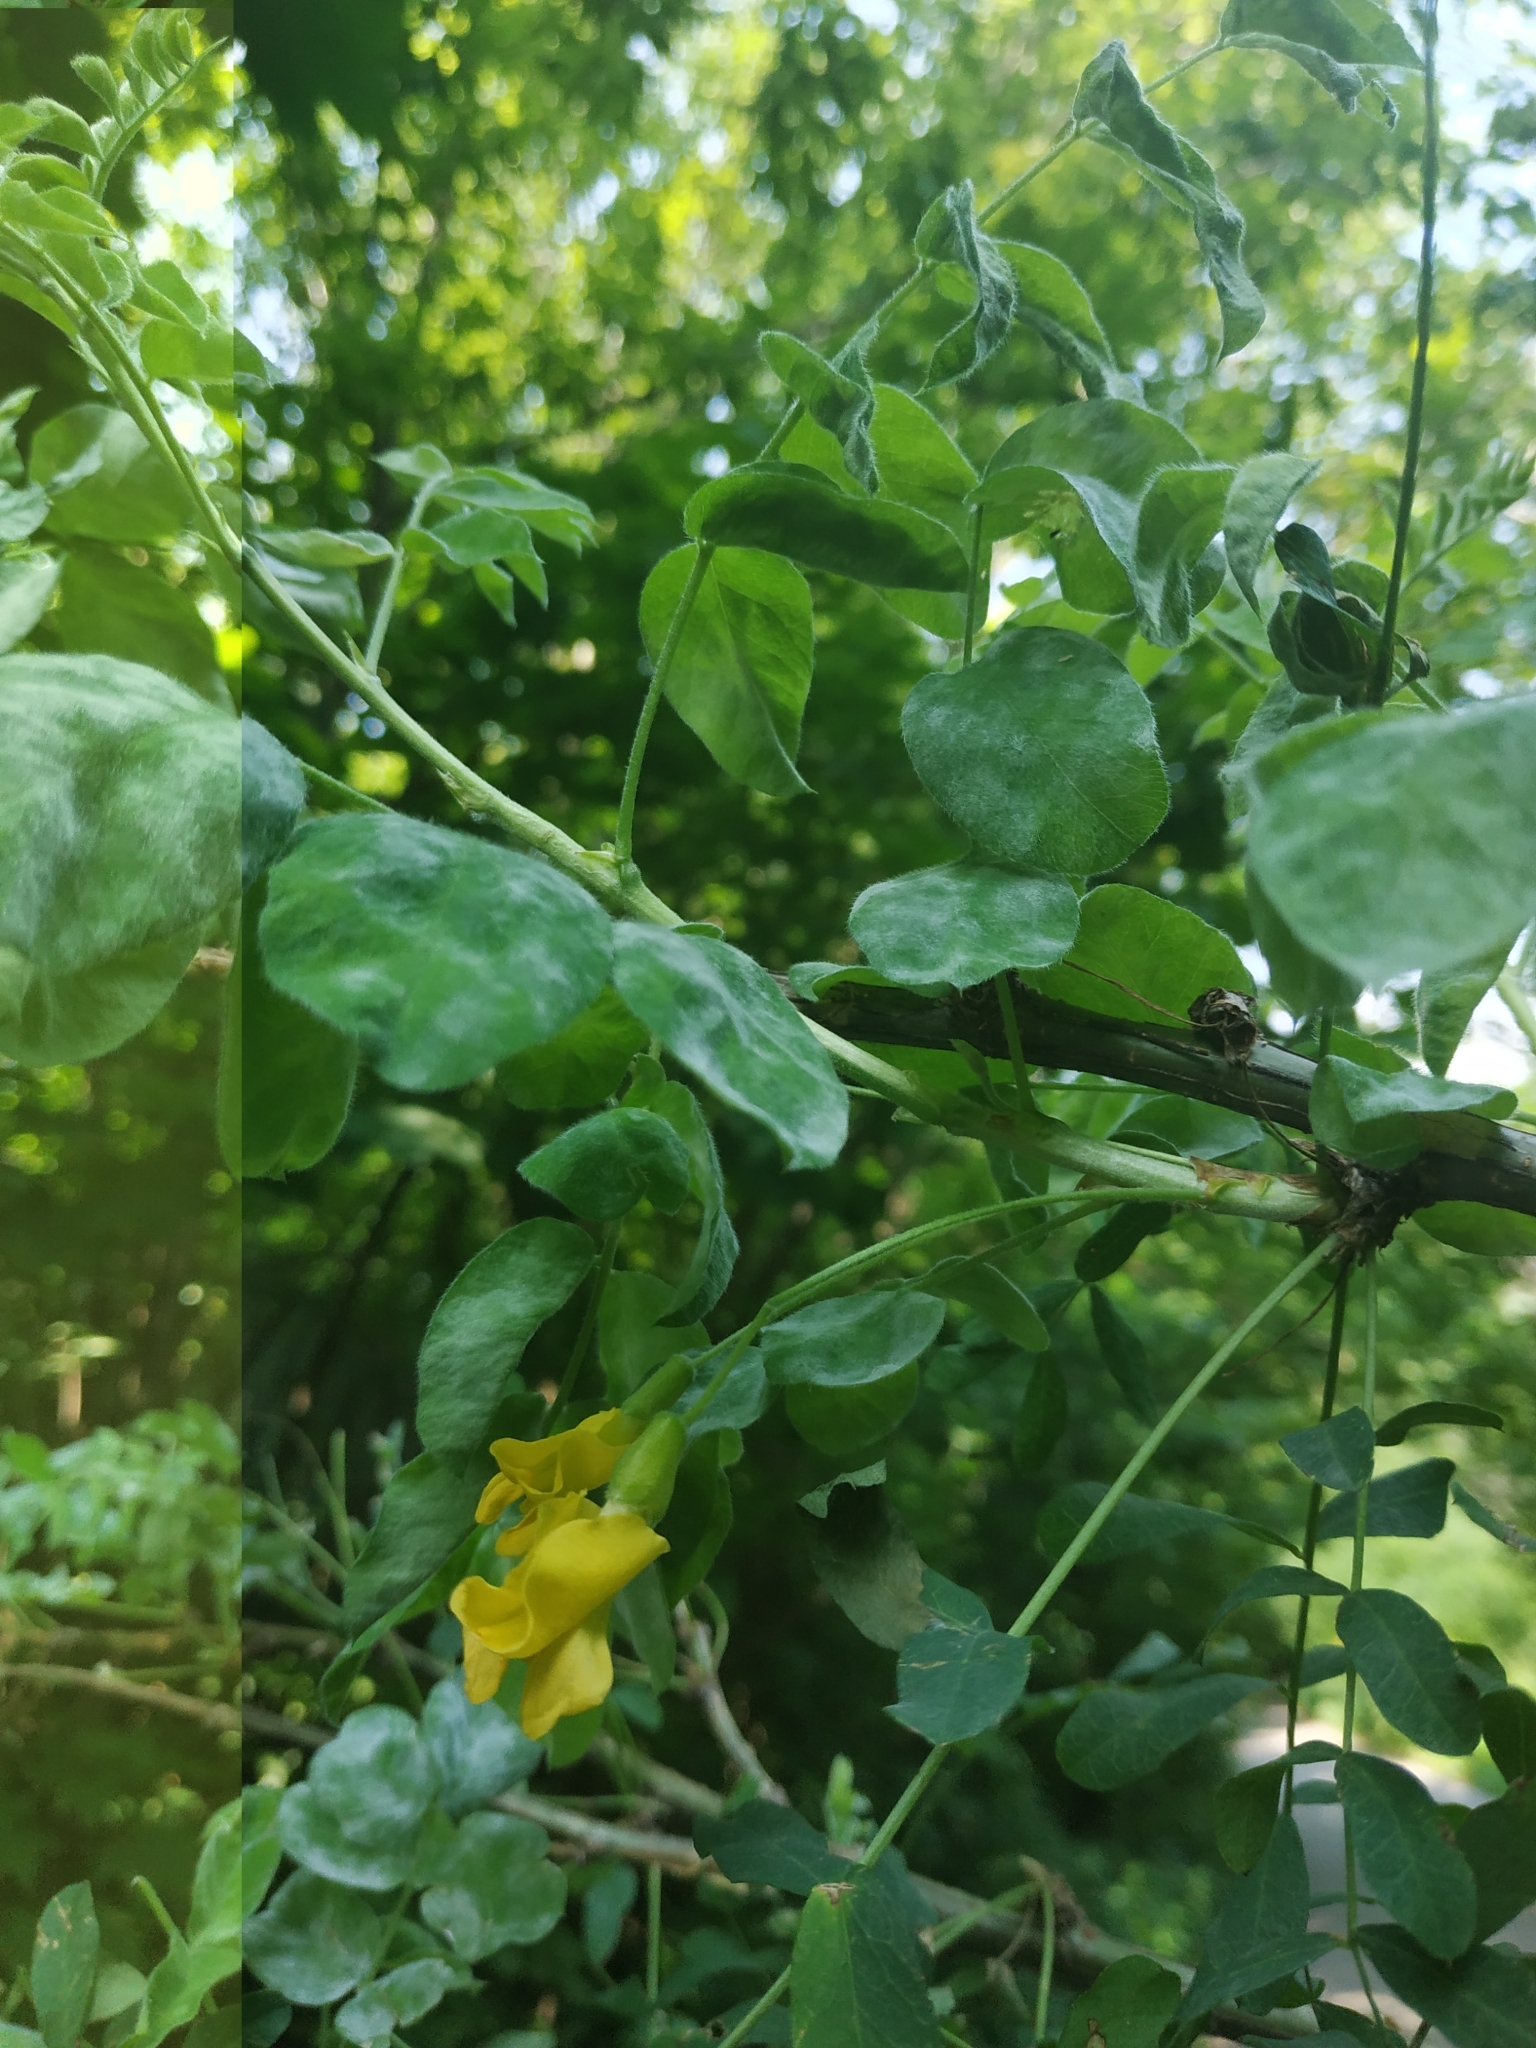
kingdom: Plantae
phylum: Tracheophyta
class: Magnoliopsida
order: Fabales
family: Fabaceae
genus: Caragana
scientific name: Caragana arborescens
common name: Siberian peashrub
